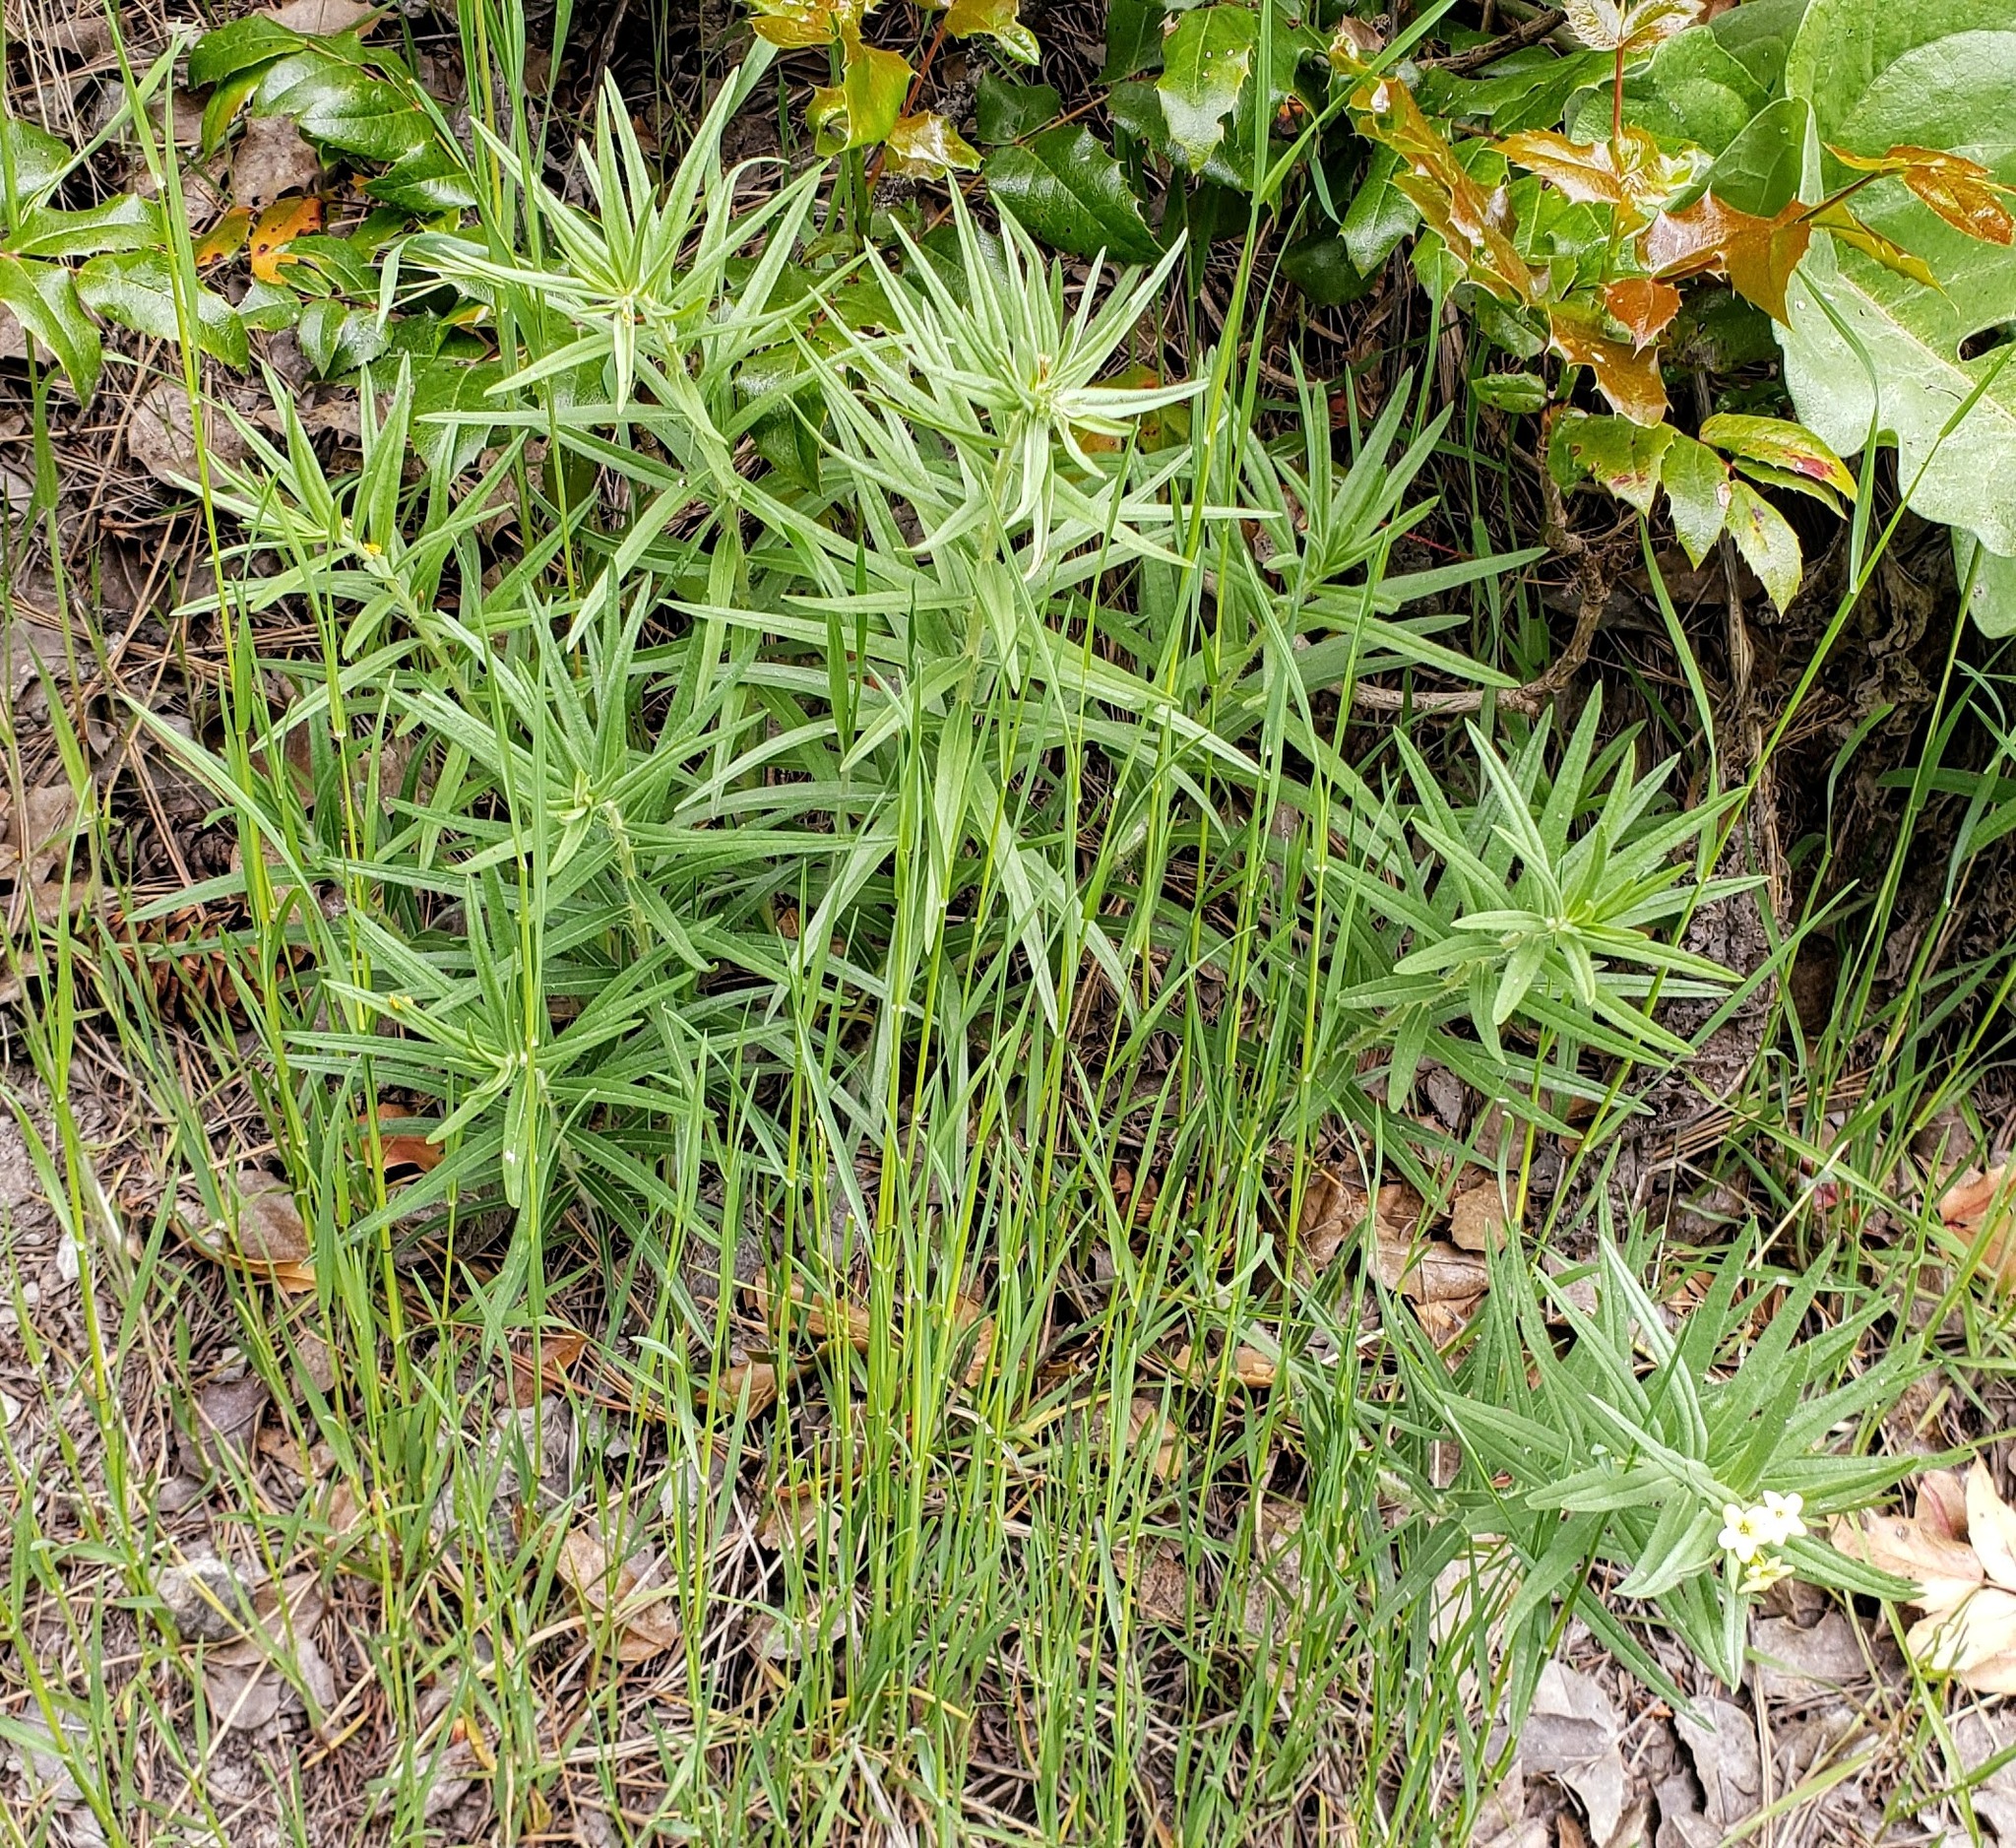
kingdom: Plantae
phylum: Tracheophyta
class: Magnoliopsida
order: Boraginales
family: Boraginaceae
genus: Lithospermum
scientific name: Lithospermum ruderale
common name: Western gromwell
